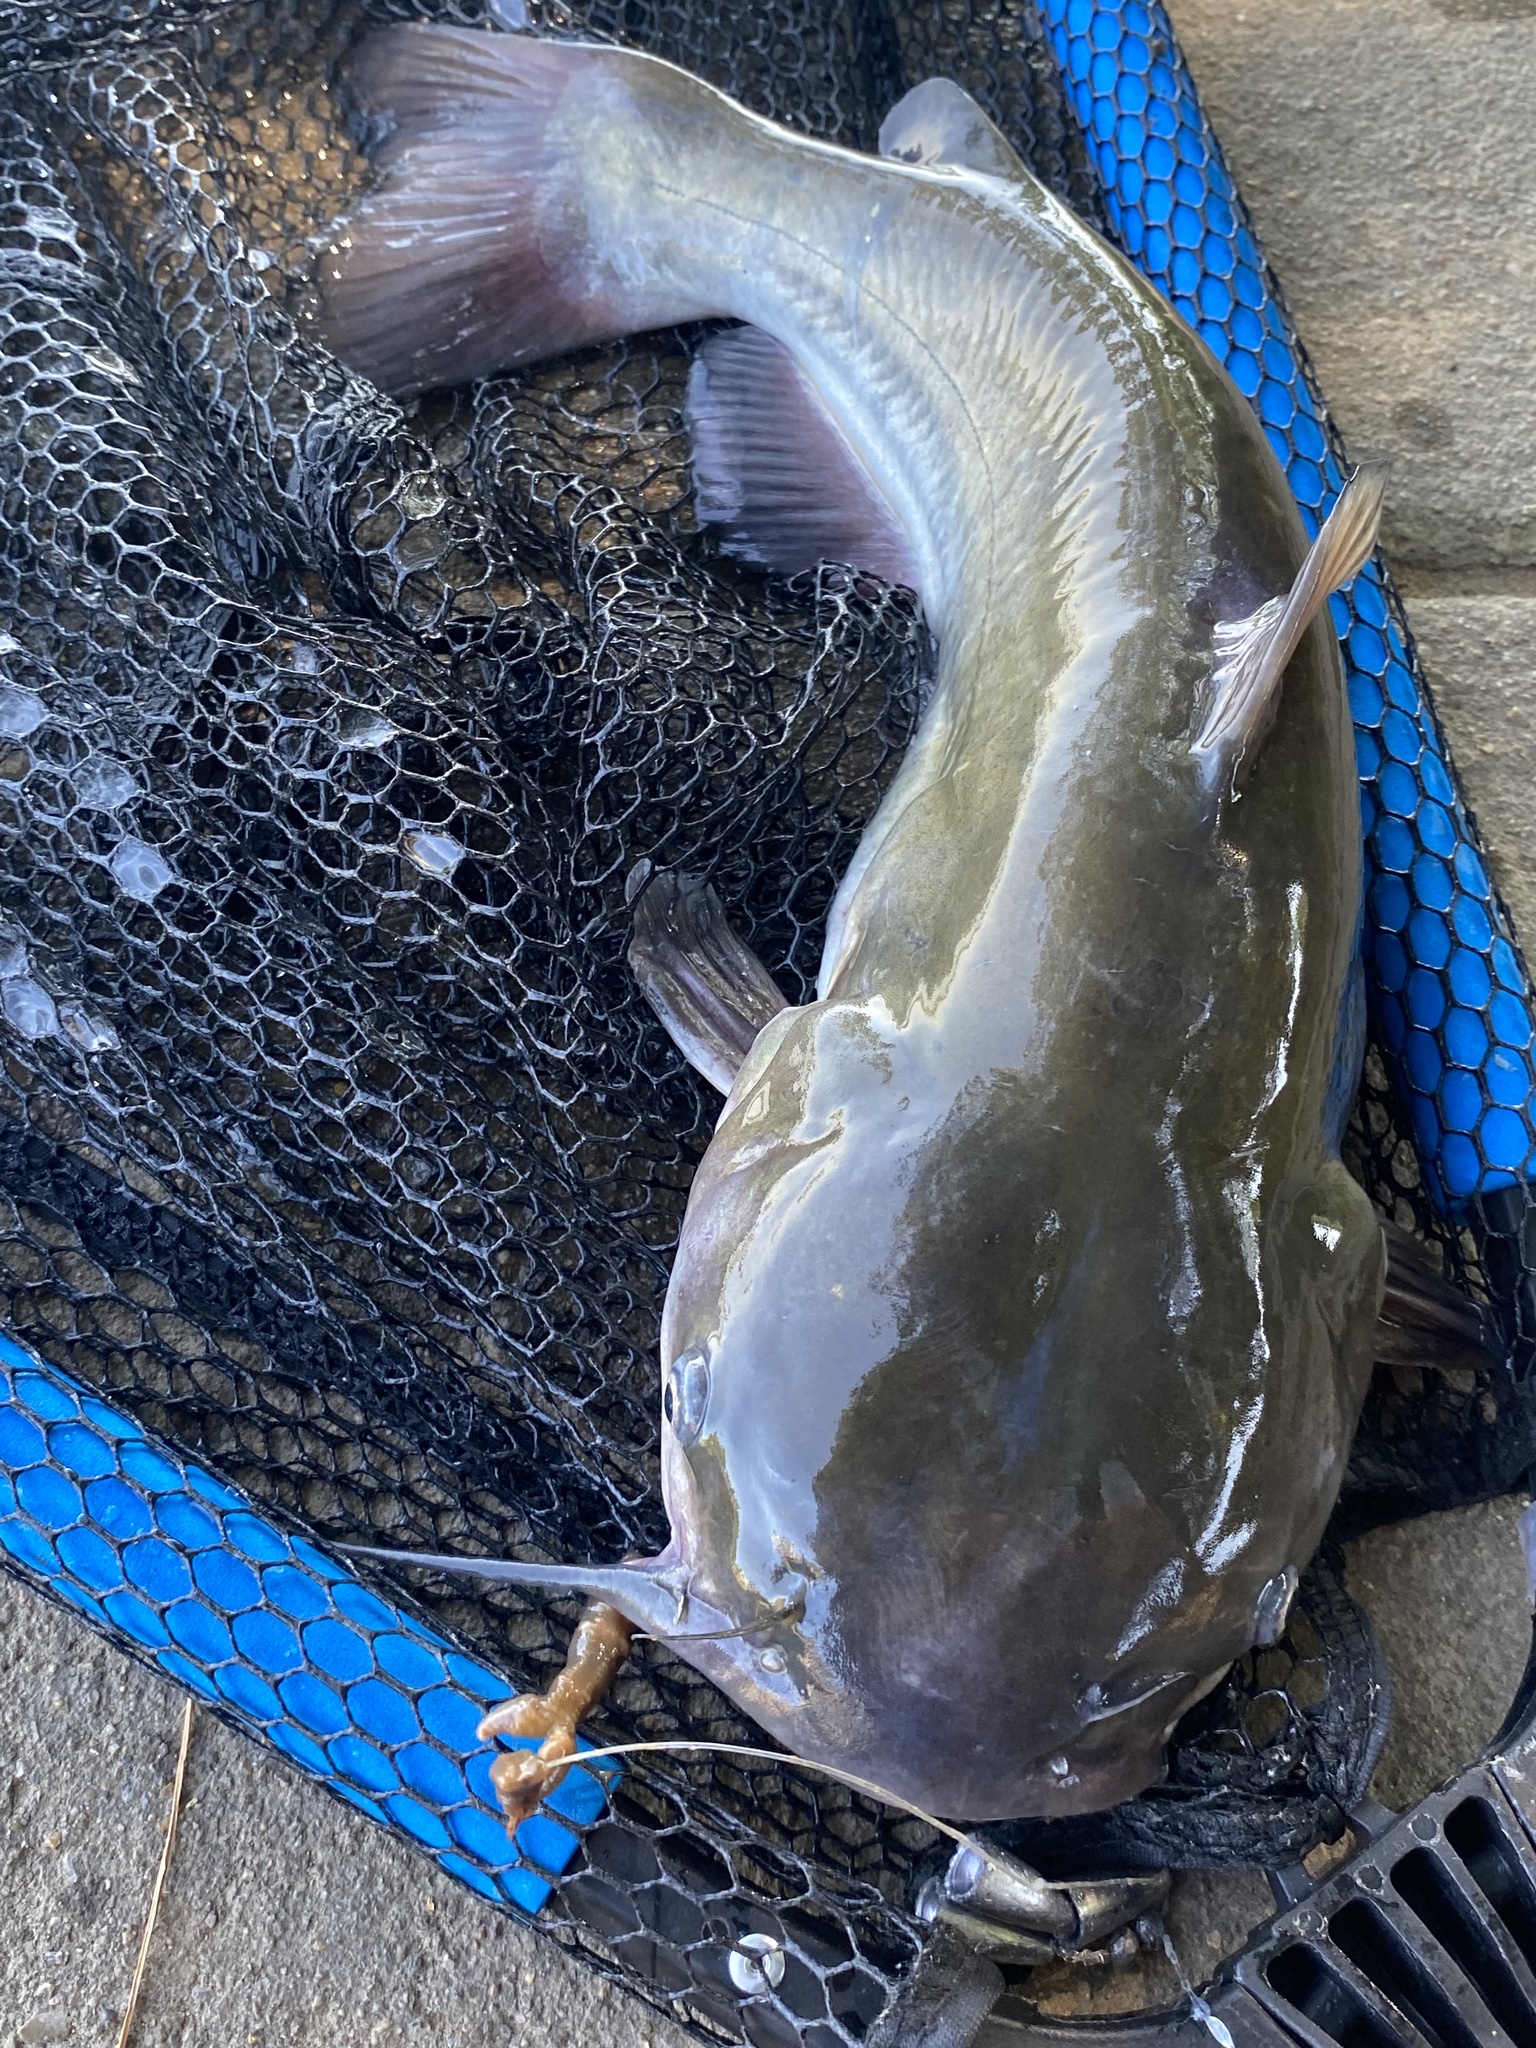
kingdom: Animalia
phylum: Chordata
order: Siluriformes
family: Ictaluridae
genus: Ictalurus
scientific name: Ictalurus punctatus
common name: Channel catfish
